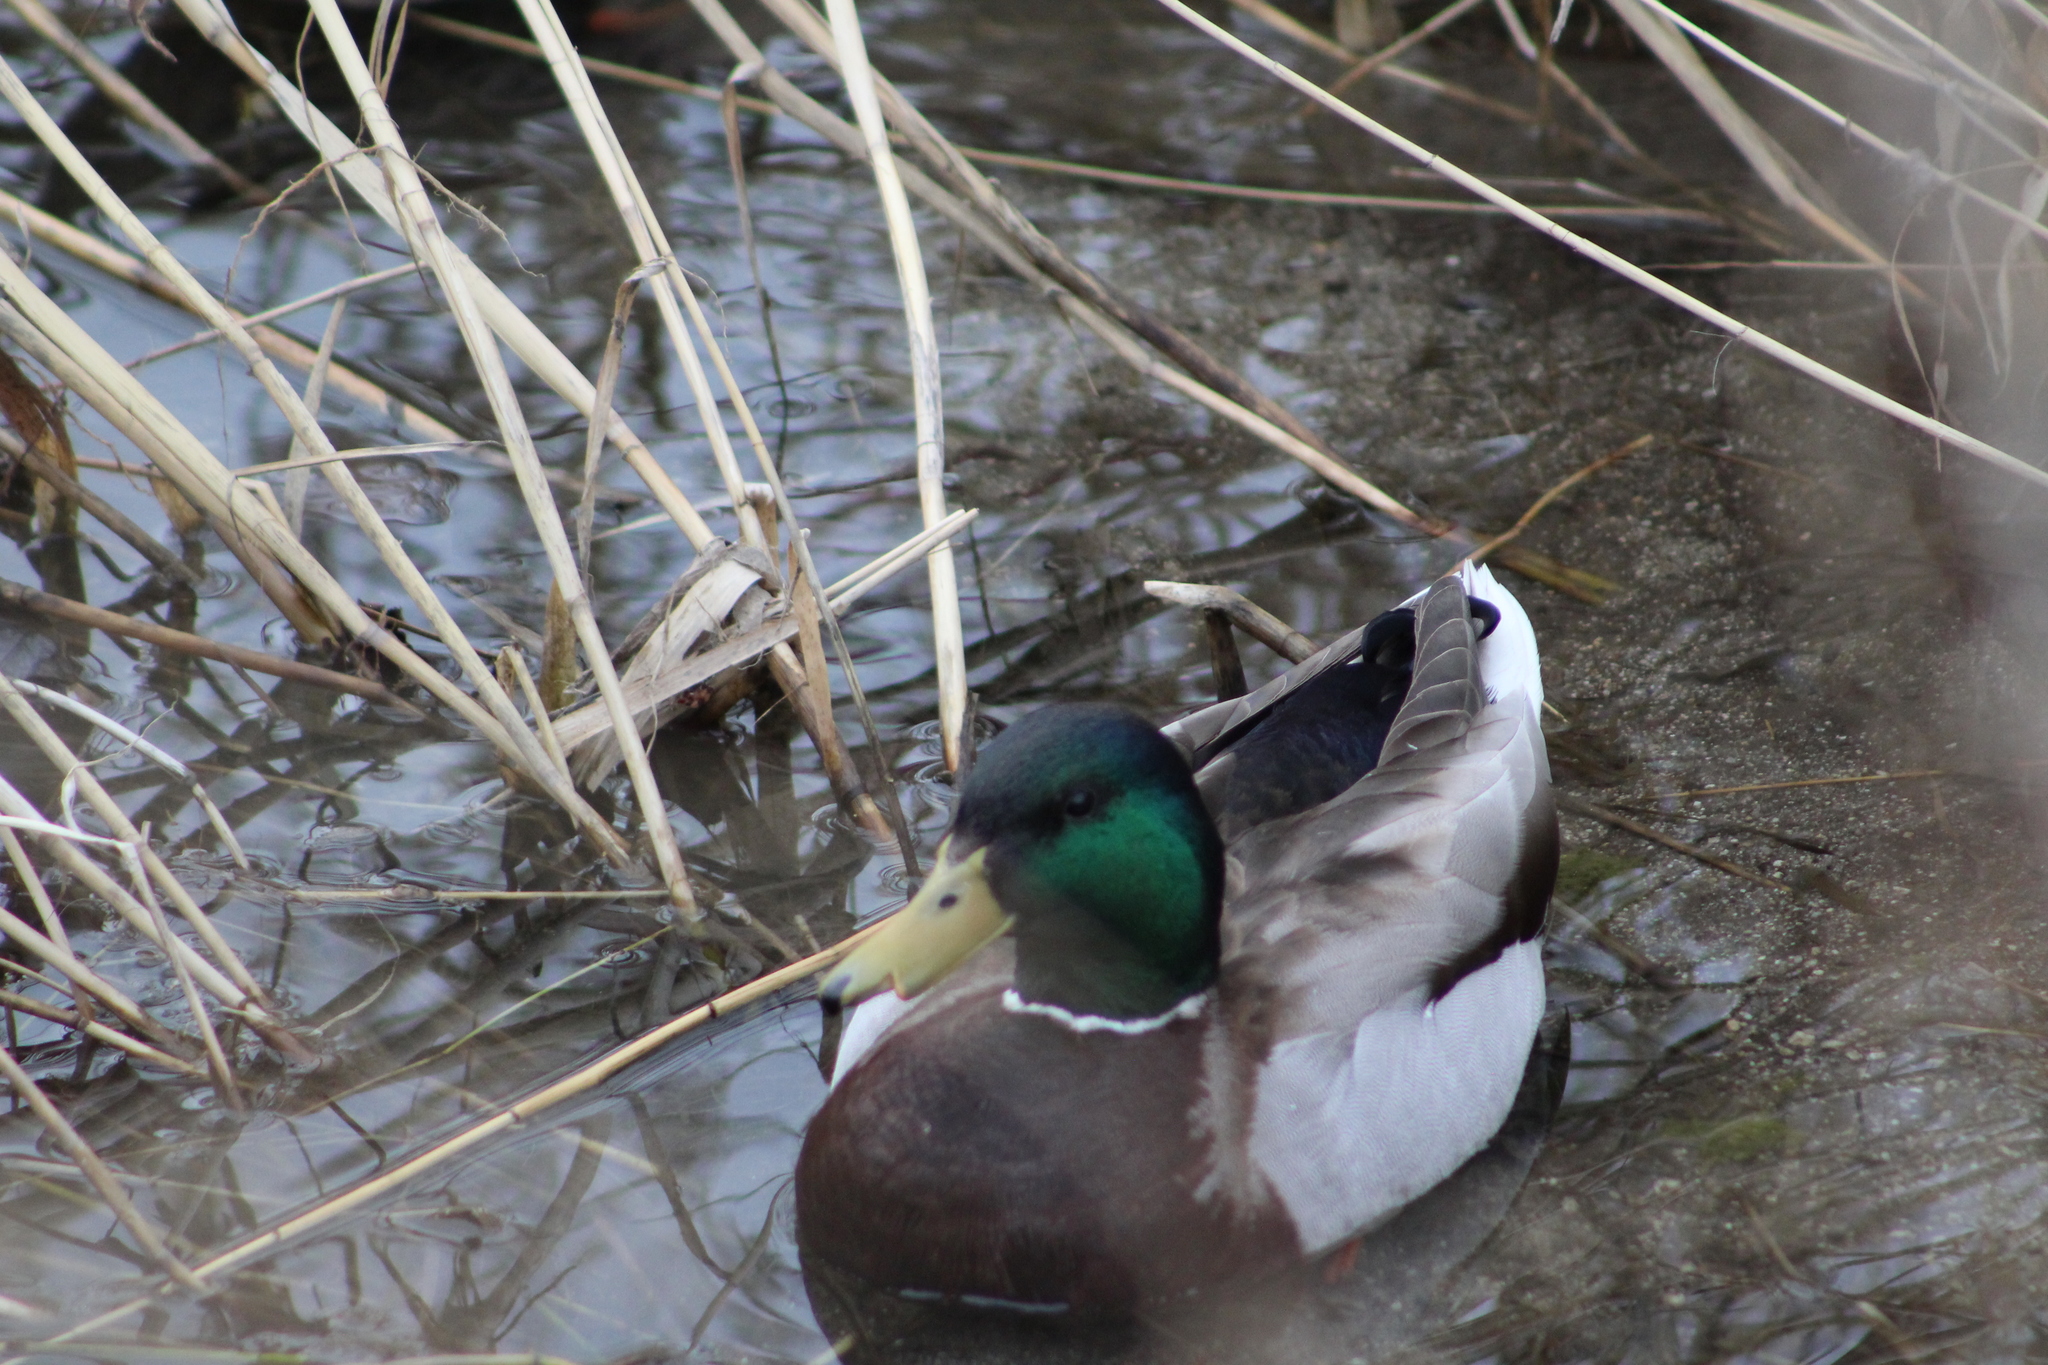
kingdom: Animalia
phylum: Chordata
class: Aves
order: Anseriformes
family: Anatidae
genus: Anas
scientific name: Anas platyrhynchos
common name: Mallard
